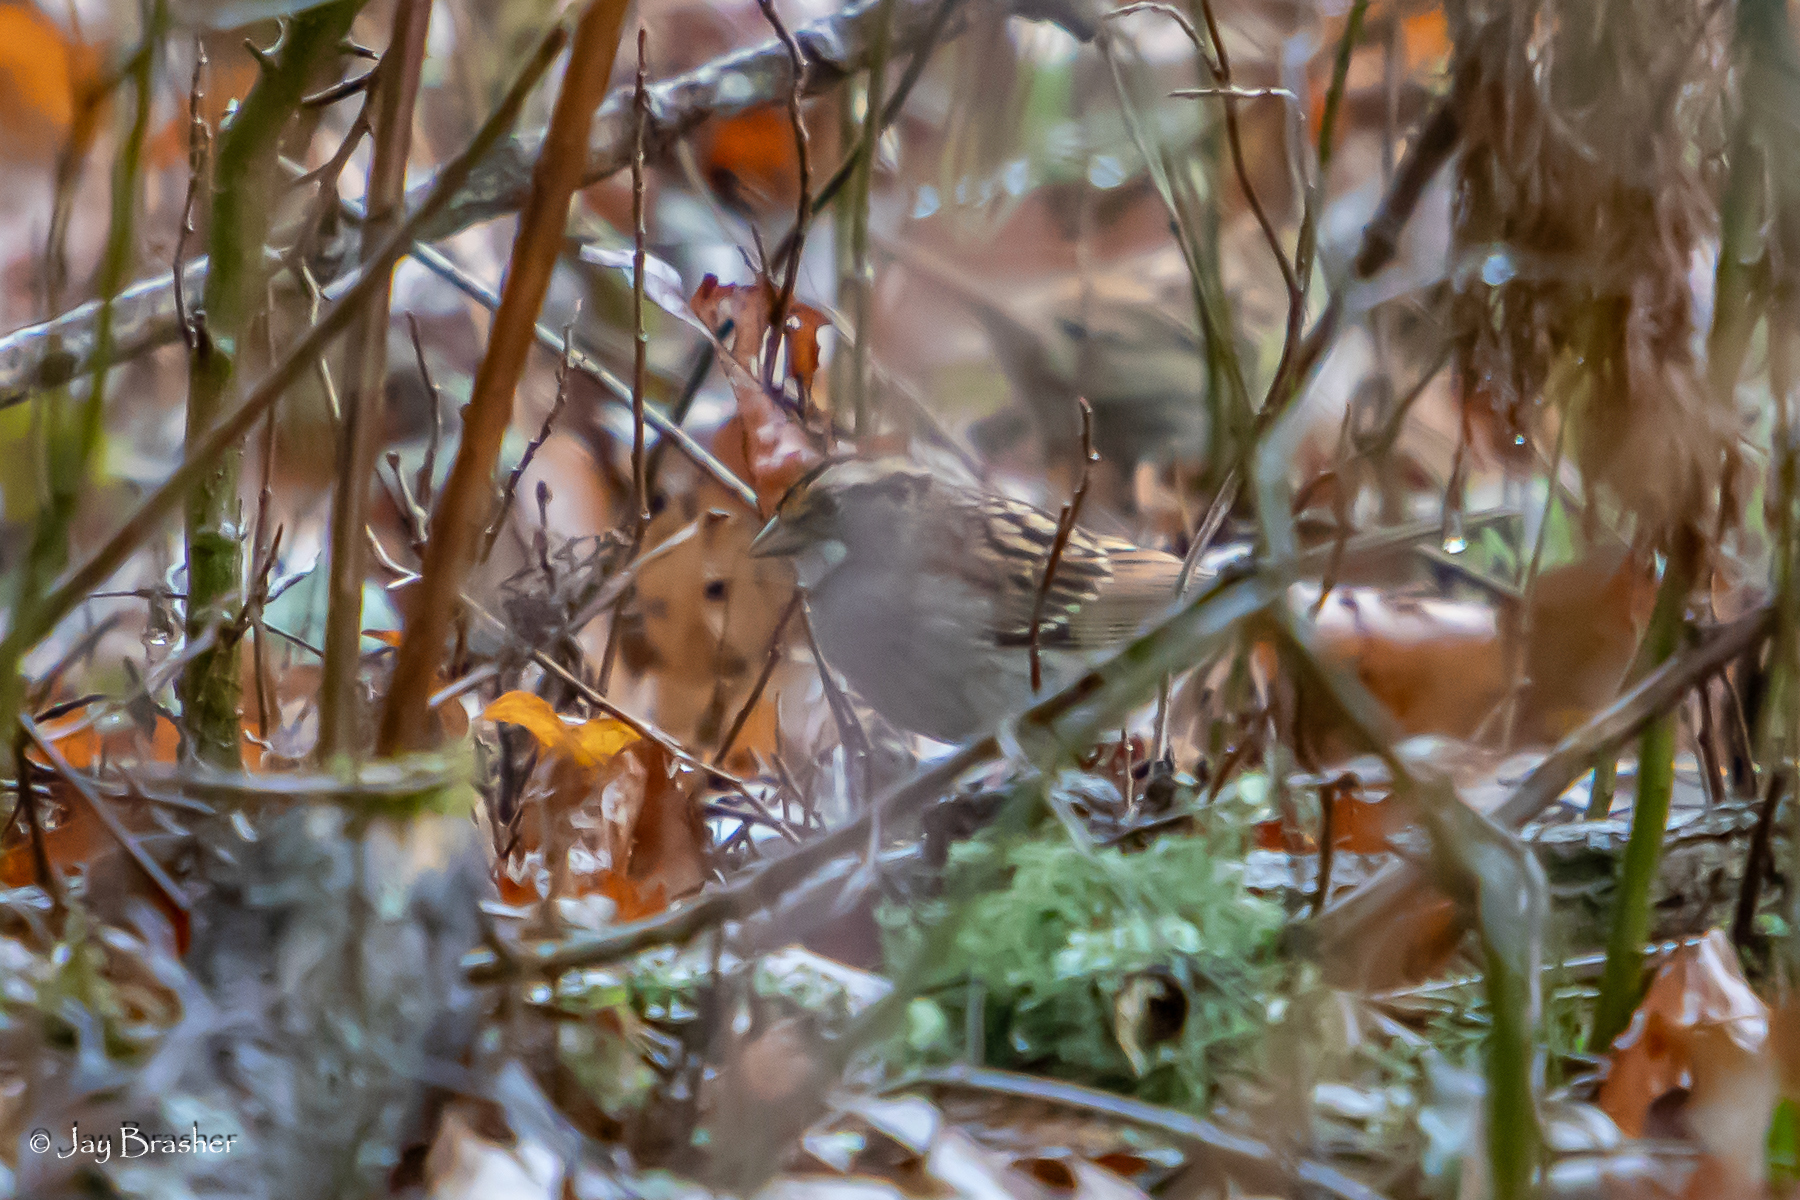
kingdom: Animalia
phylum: Chordata
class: Aves
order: Passeriformes
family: Passerellidae
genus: Zonotrichia
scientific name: Zonotrichia albicollis
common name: White-throated sparrow
